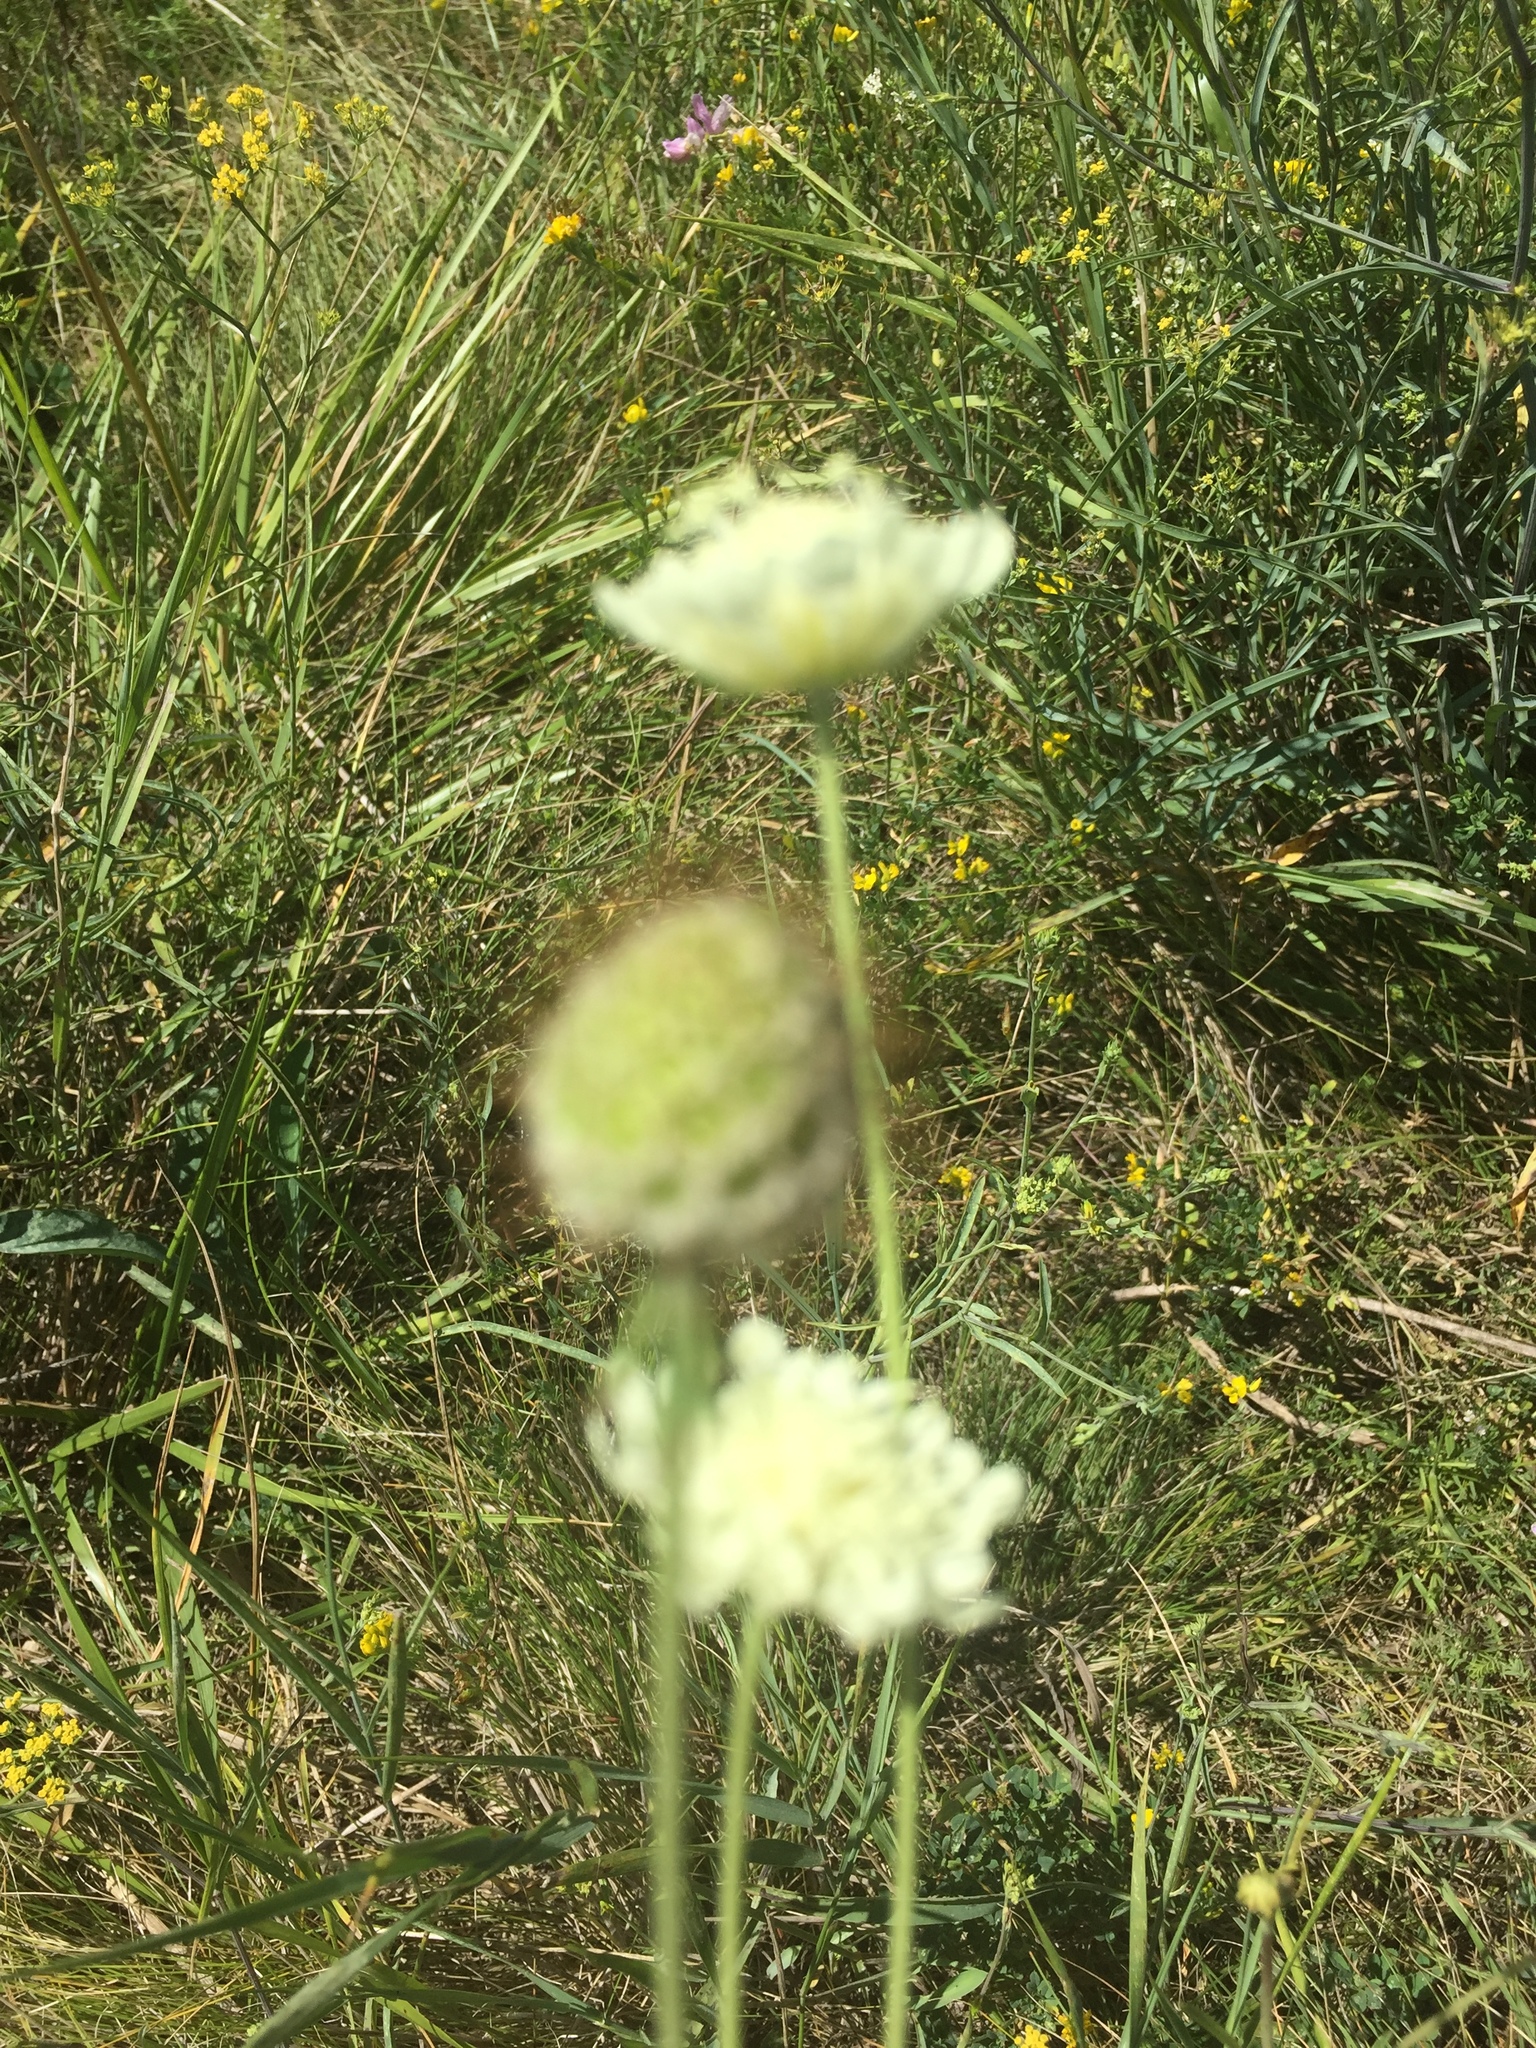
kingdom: Plantae
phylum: Tracheophyta
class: Magnoliopsida
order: Dipsacales
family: Caprifoliaceae
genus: Scabiosa
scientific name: Scabiosa ochroleuca
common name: Cream pincushions
